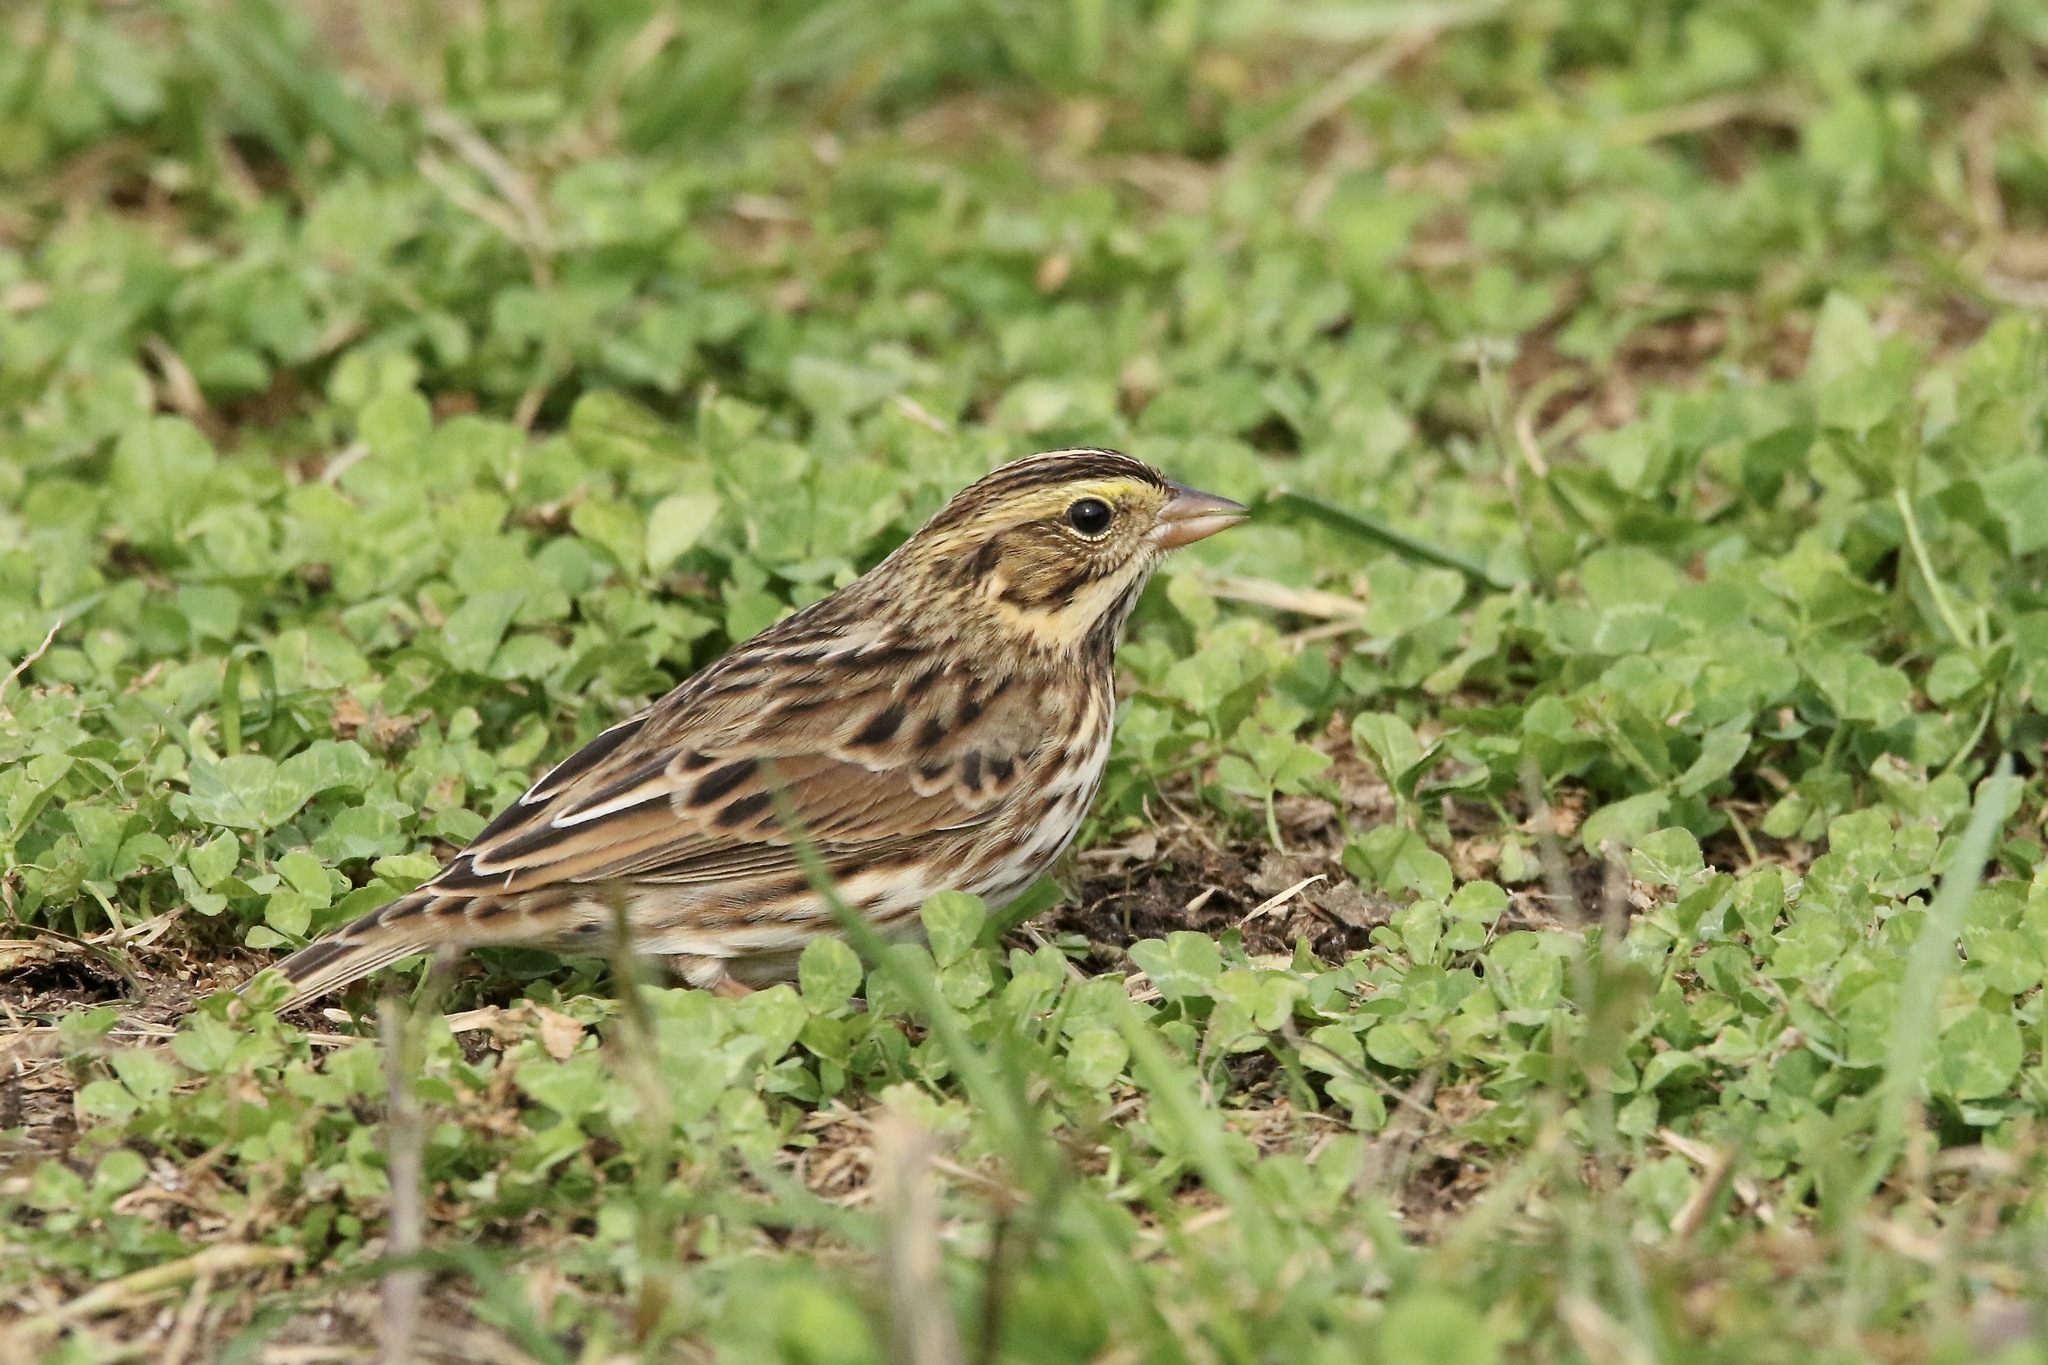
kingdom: Animalia
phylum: Chordata
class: Aves
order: Passeriformes
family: Passerellidae
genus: Passerculus
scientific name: Passerculus sandwichensis
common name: Savannah sparrow
